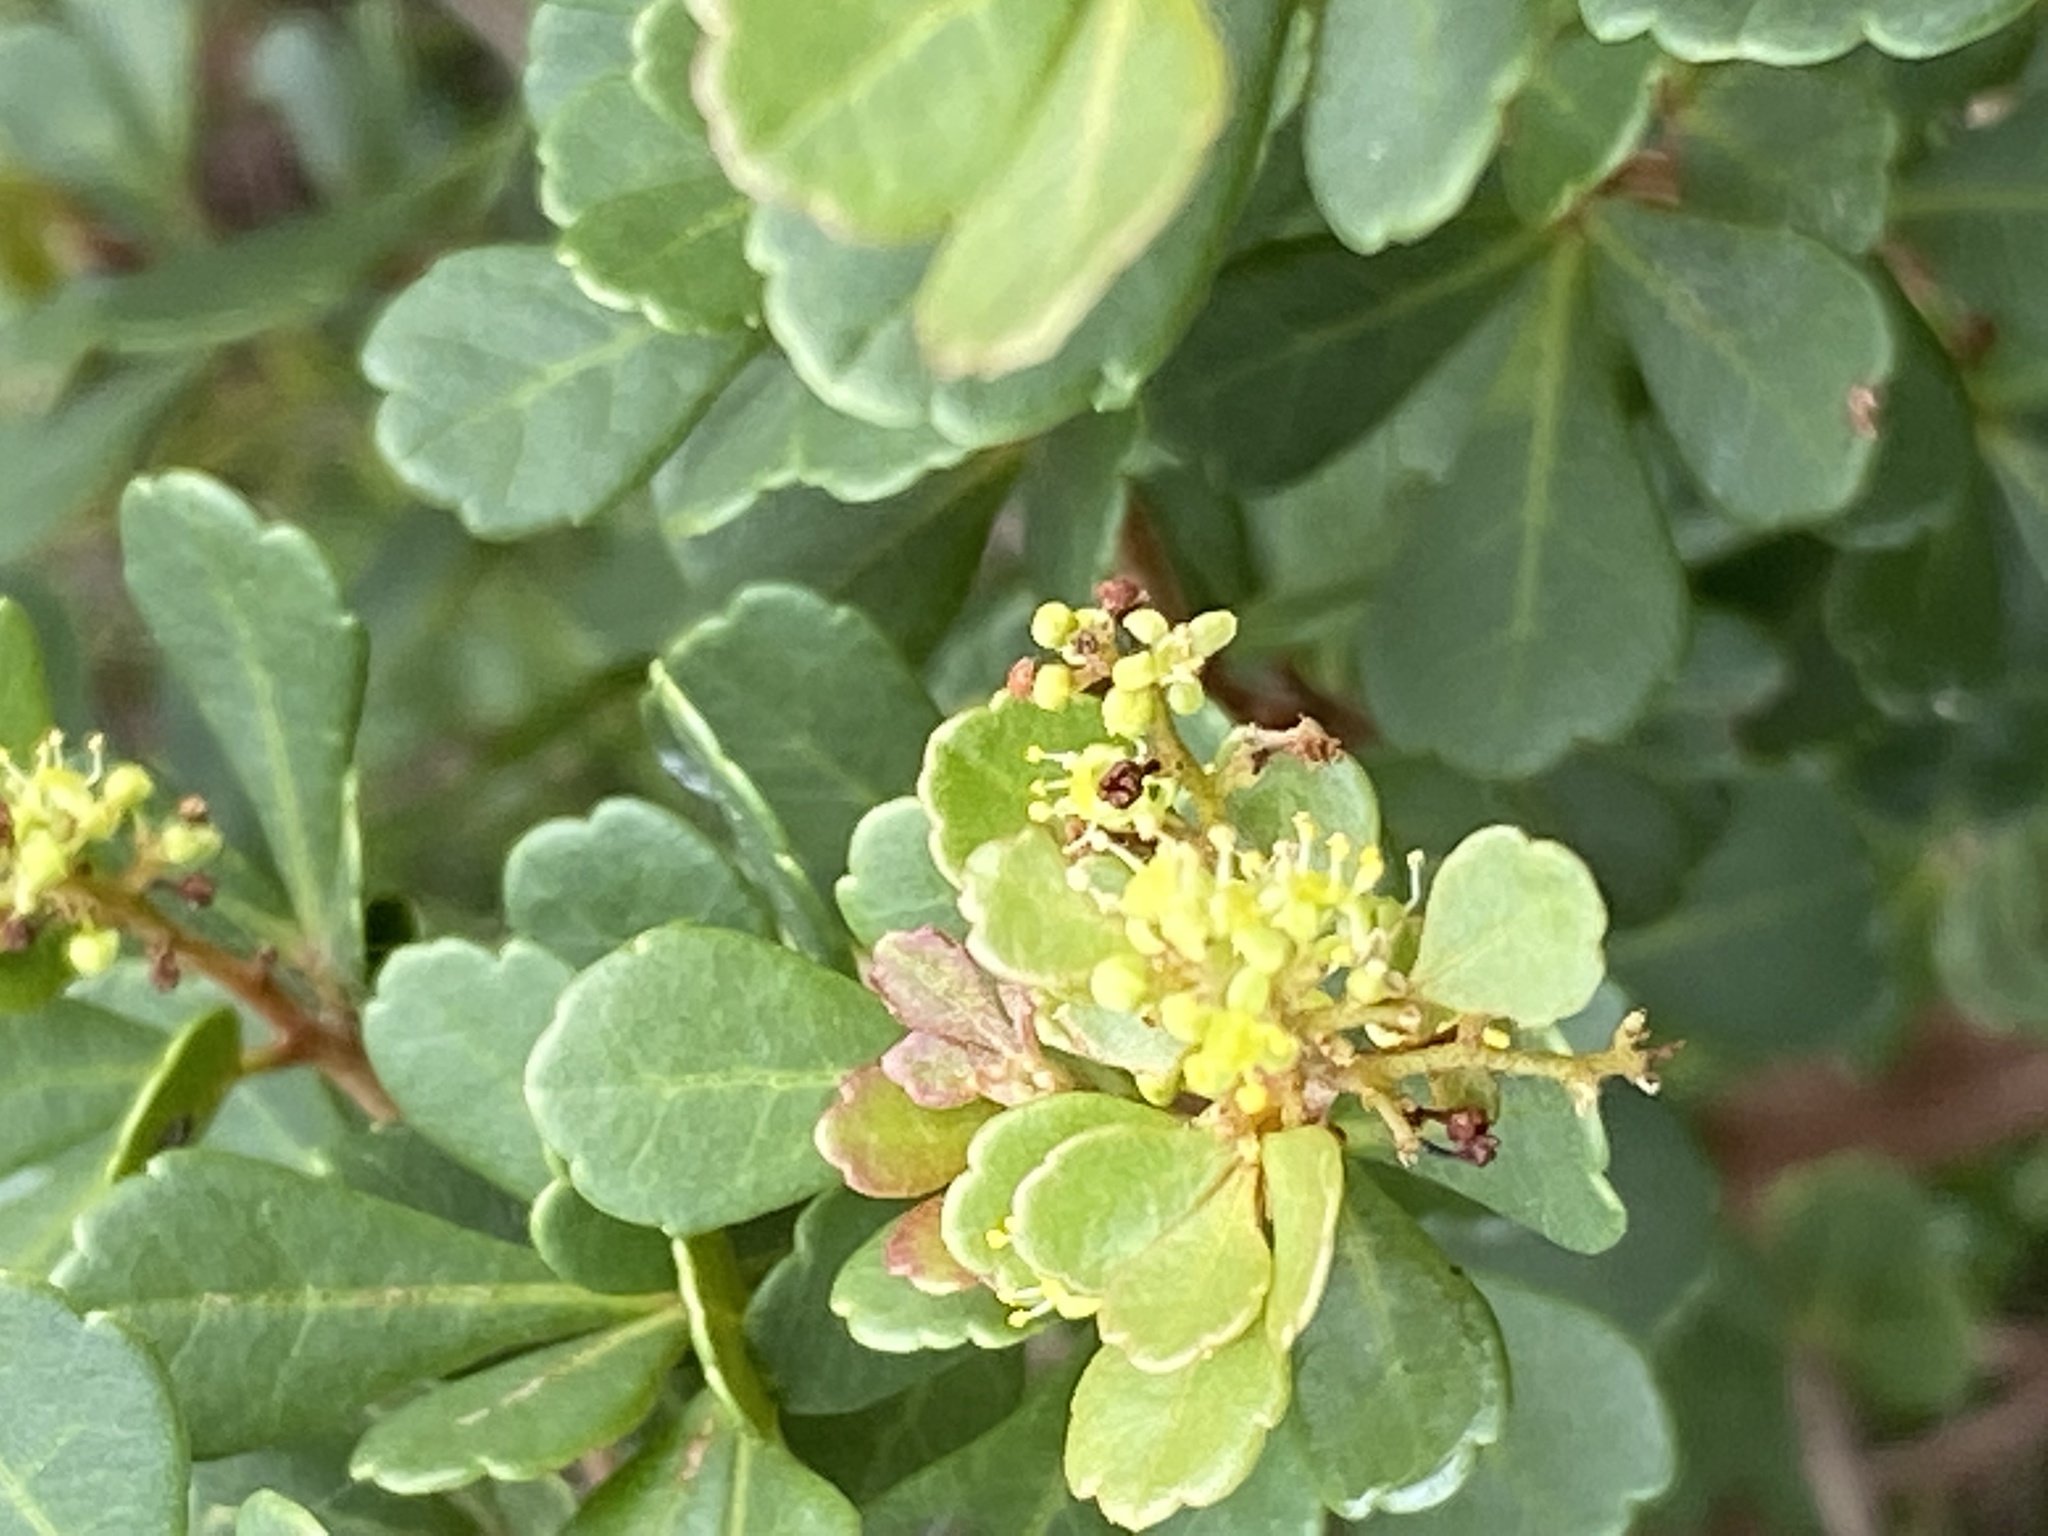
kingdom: Plantae
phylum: Tracheophyta
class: Magnoliopsida
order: Sapindales
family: Anacardiaceae
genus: Searsia
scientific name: Searsia crenata
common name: Crowberry
